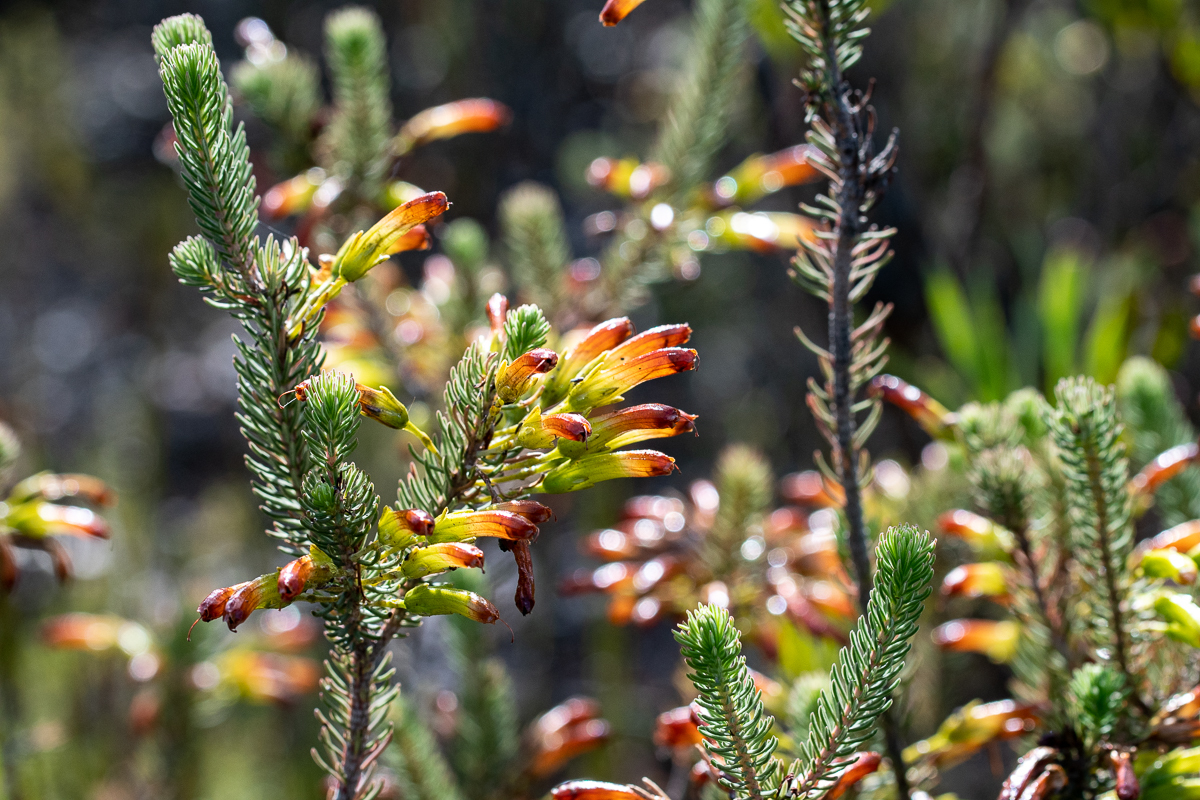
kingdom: Plantae
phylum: Tracheophyta
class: Magnoliopsida
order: Ericales
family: Ericaceae
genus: Erica
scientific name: Erica thomae
